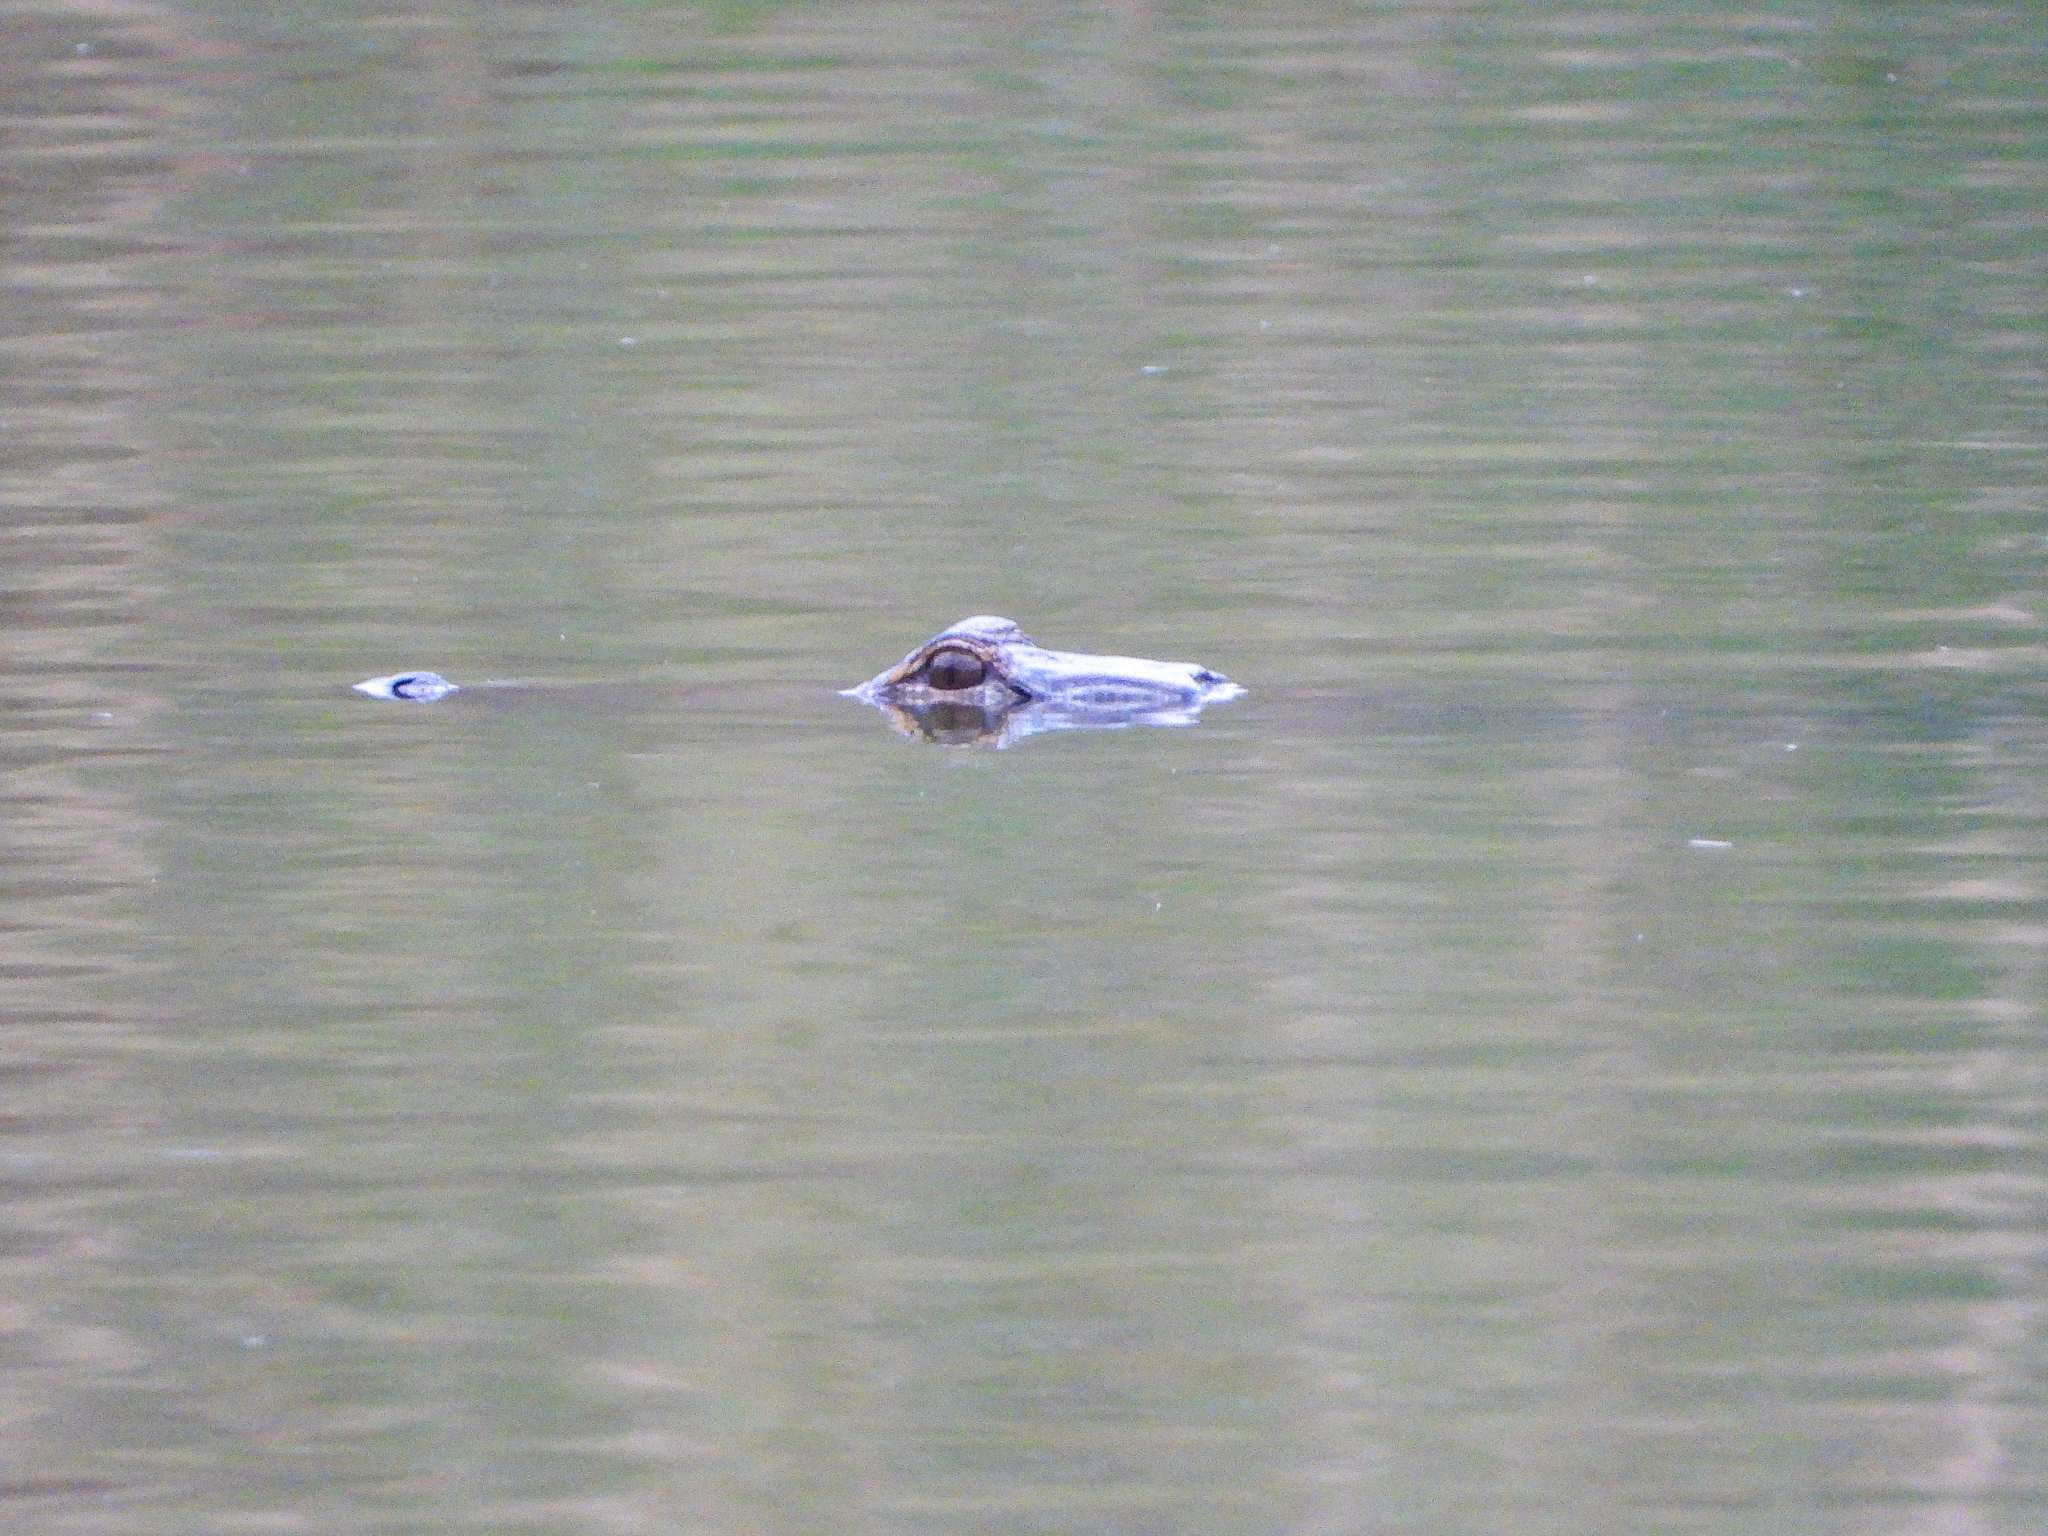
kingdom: Animalia
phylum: Chordata
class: Crocodylia
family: Alligatoridae
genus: Alligator
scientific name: Alligator mississippiensis
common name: American alligator
